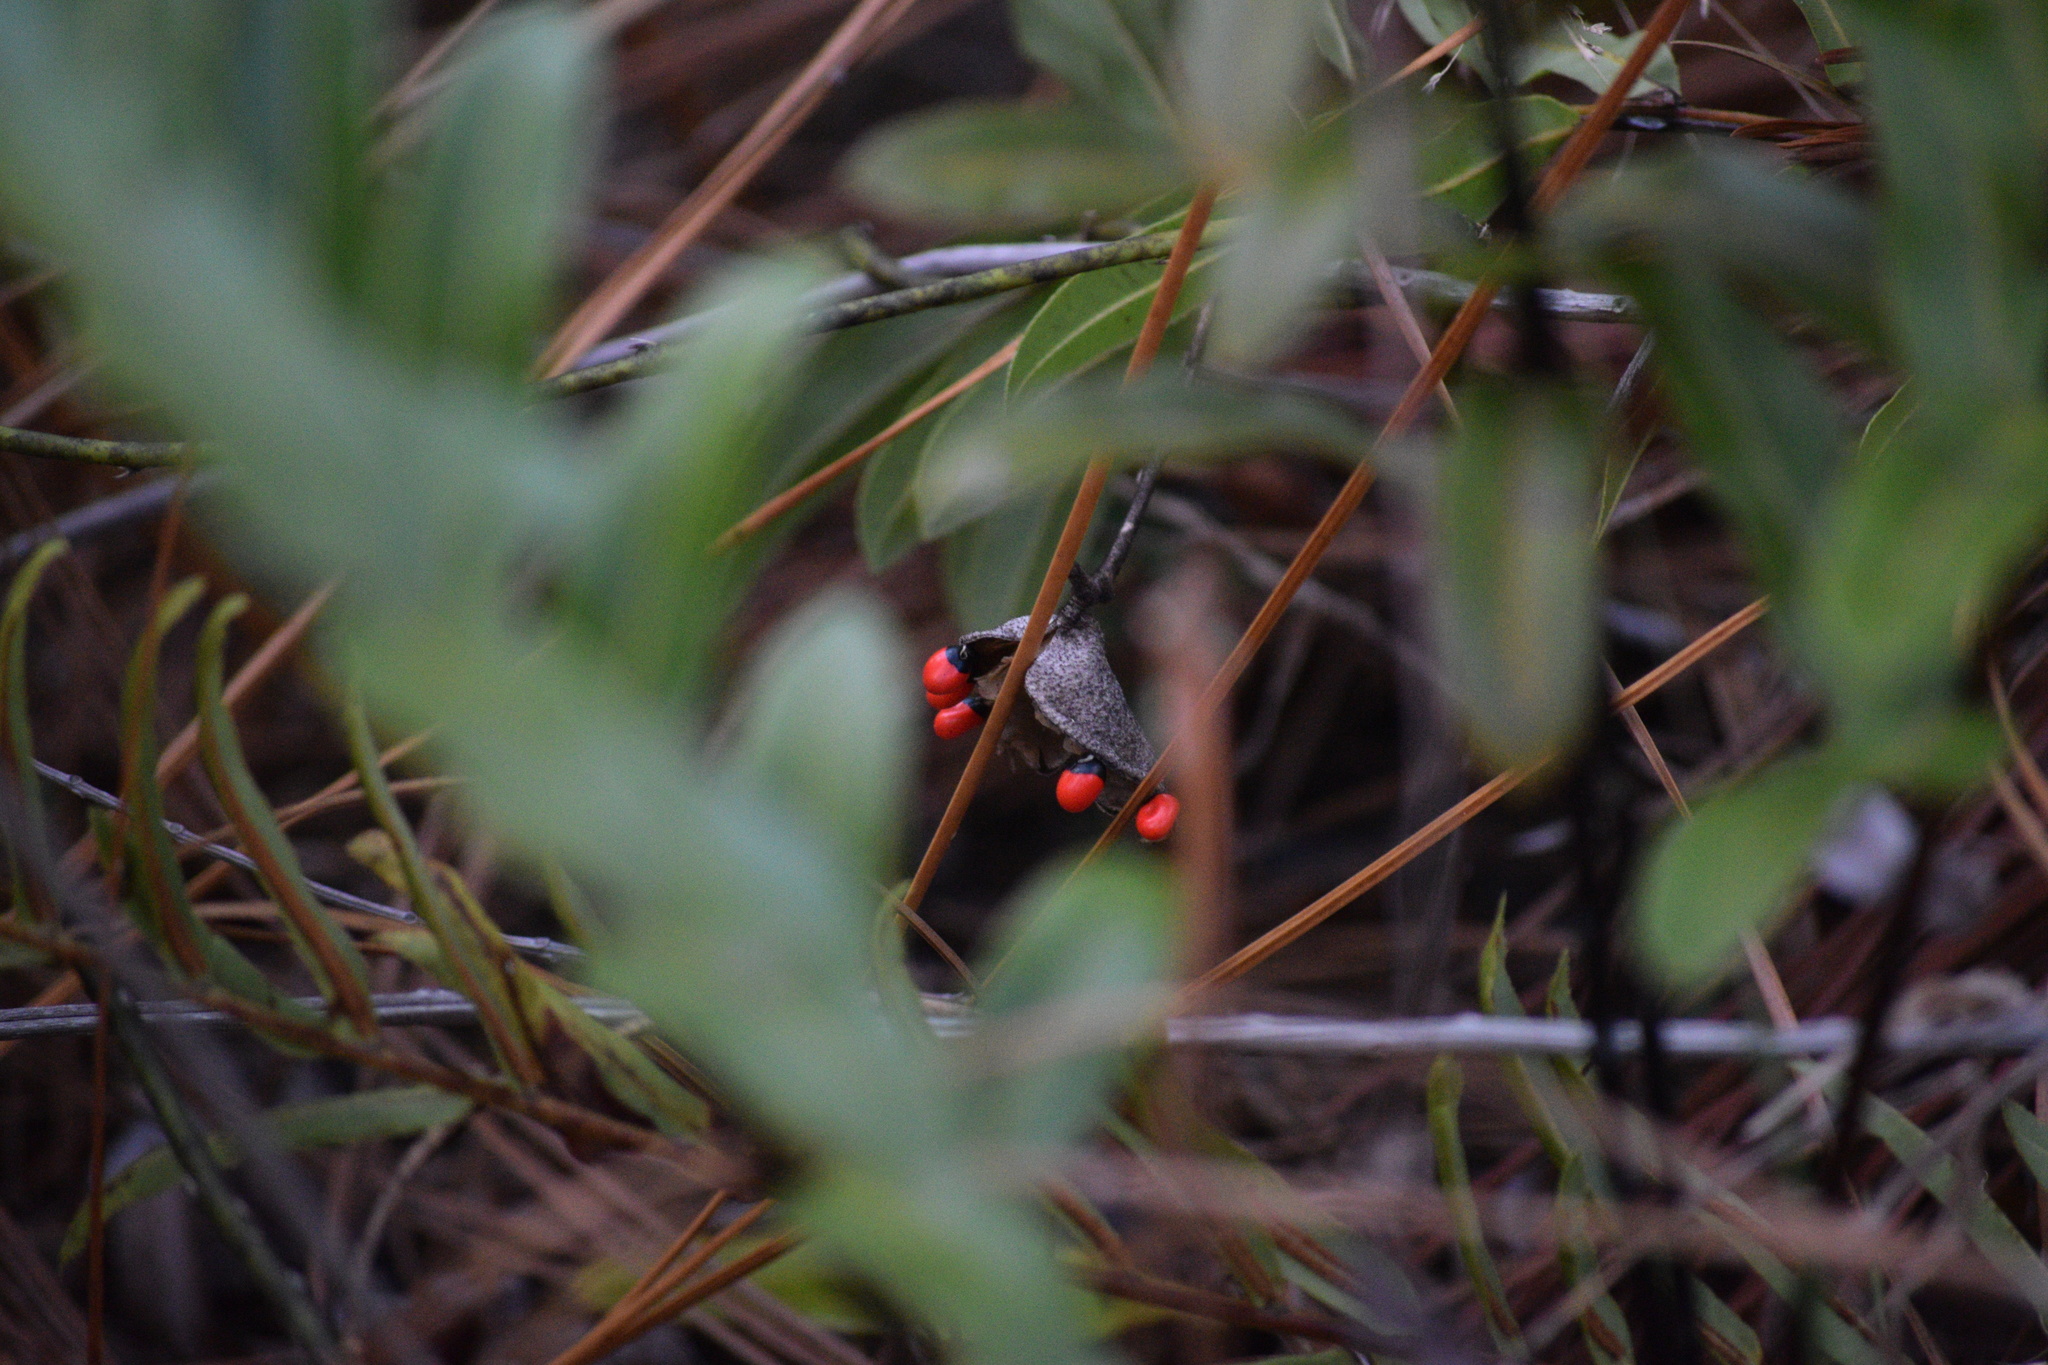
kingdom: Plantae
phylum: Tracheophyta
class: Magnoliopsida
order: Fabales
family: Fabaceae
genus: Abrus
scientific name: Abrus precatorius
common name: Rosarypea
